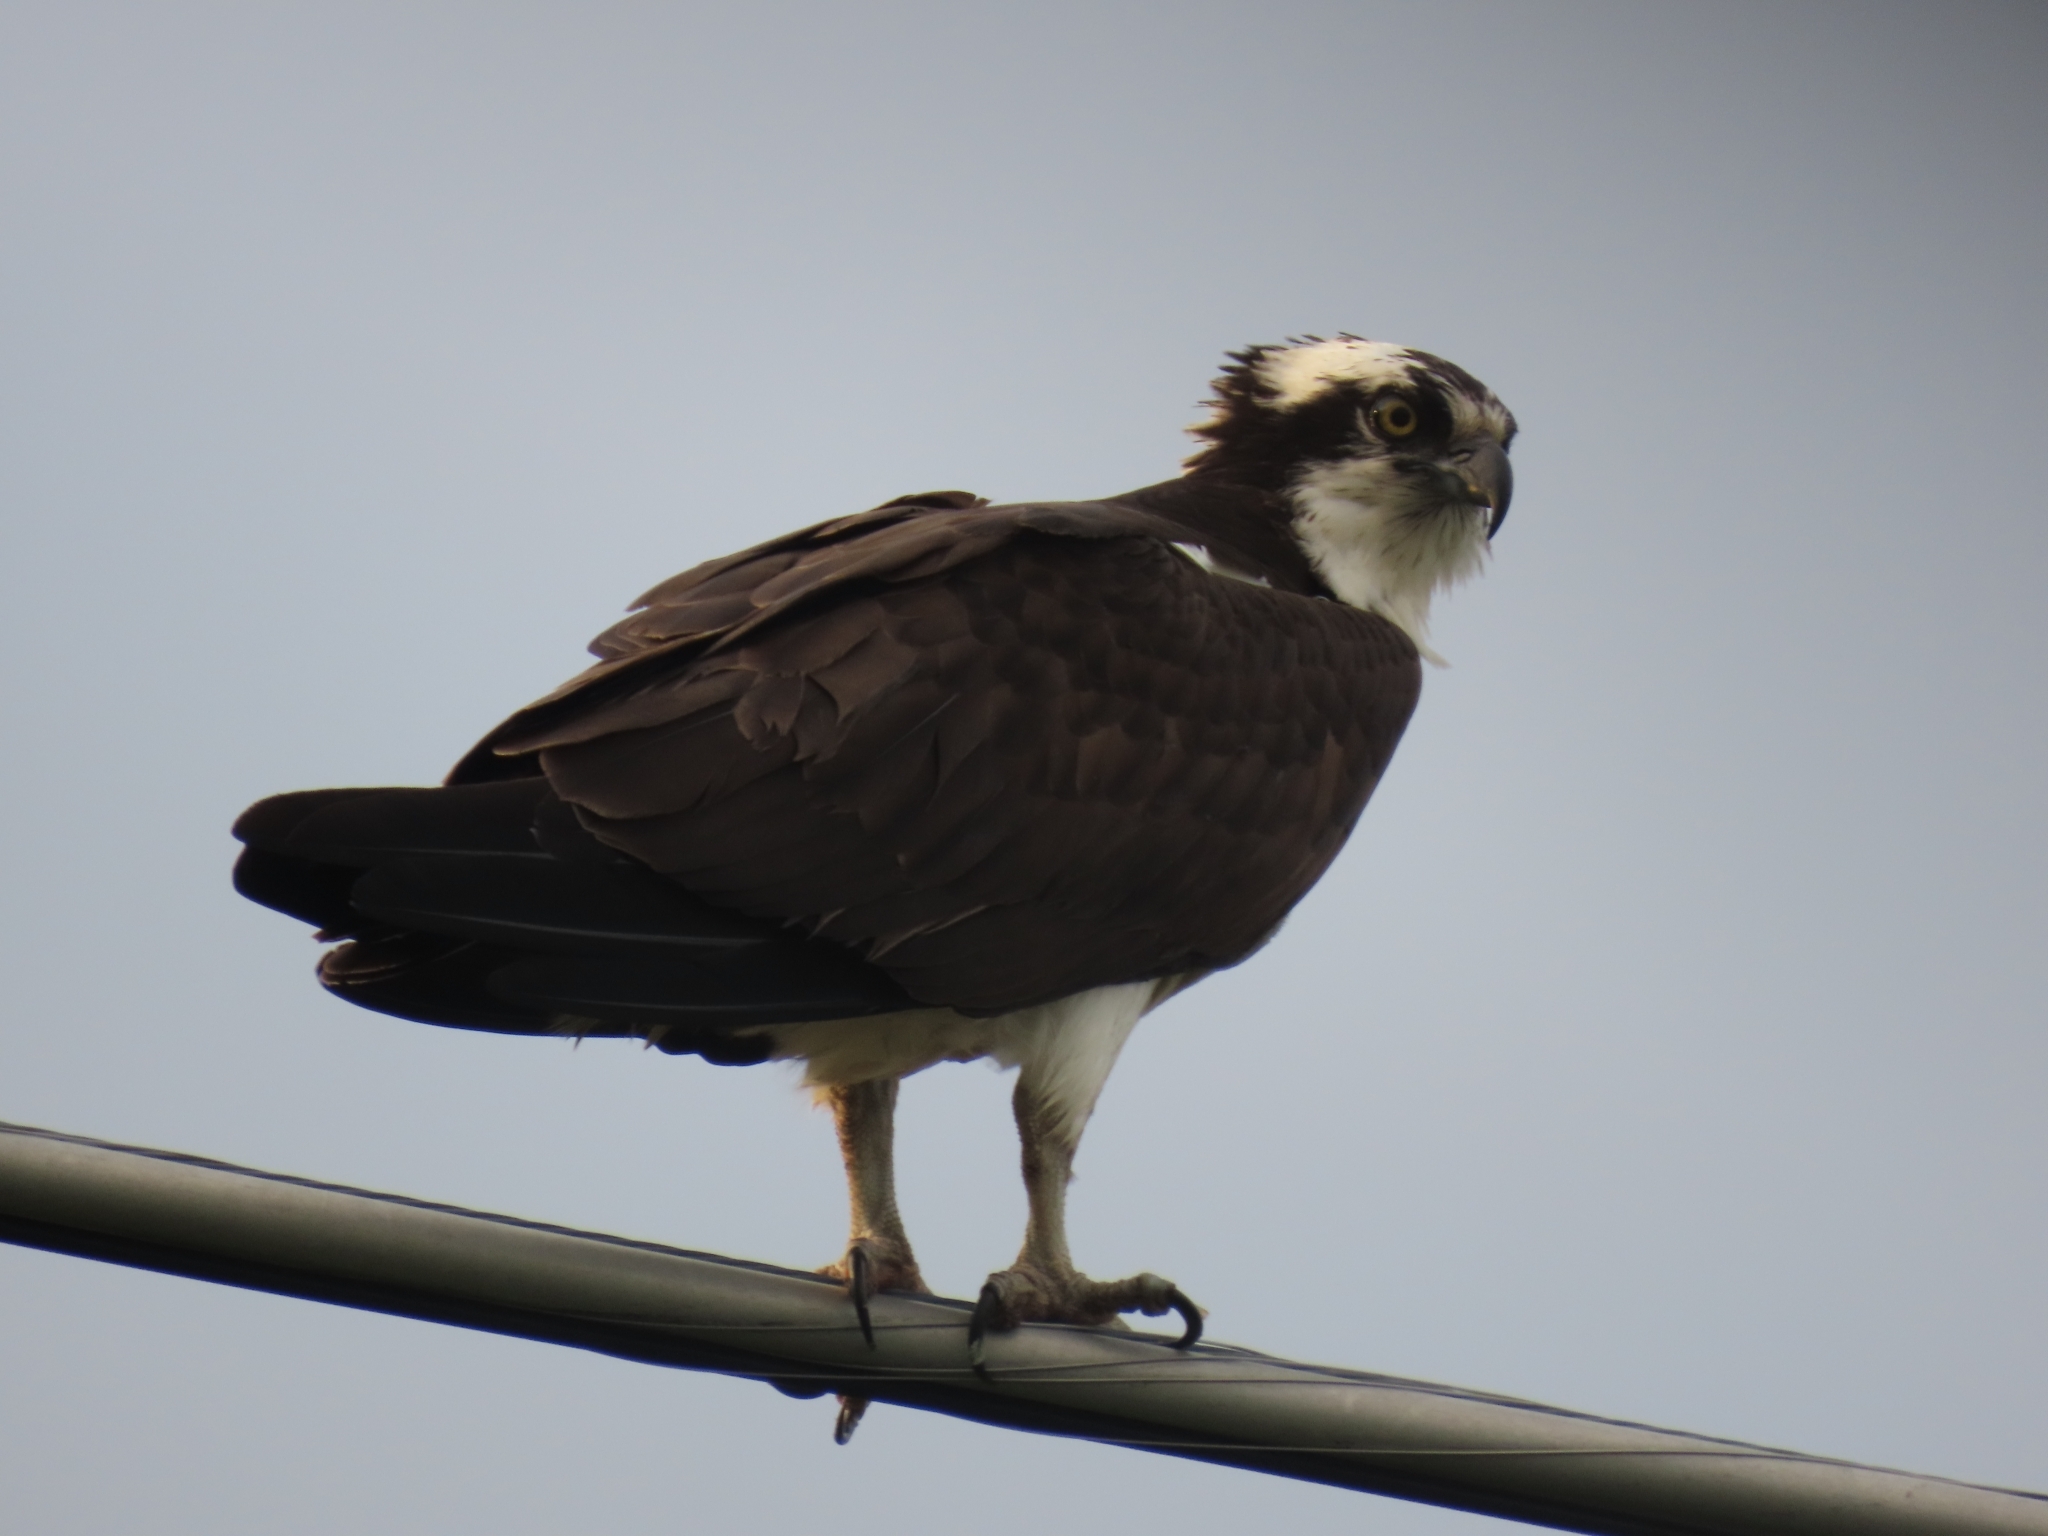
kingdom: Animalia
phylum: Chordata
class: Aves
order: Accipitriformes
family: Pandionidae
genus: Pandion
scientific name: Pandion haliaetus
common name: Osprey
